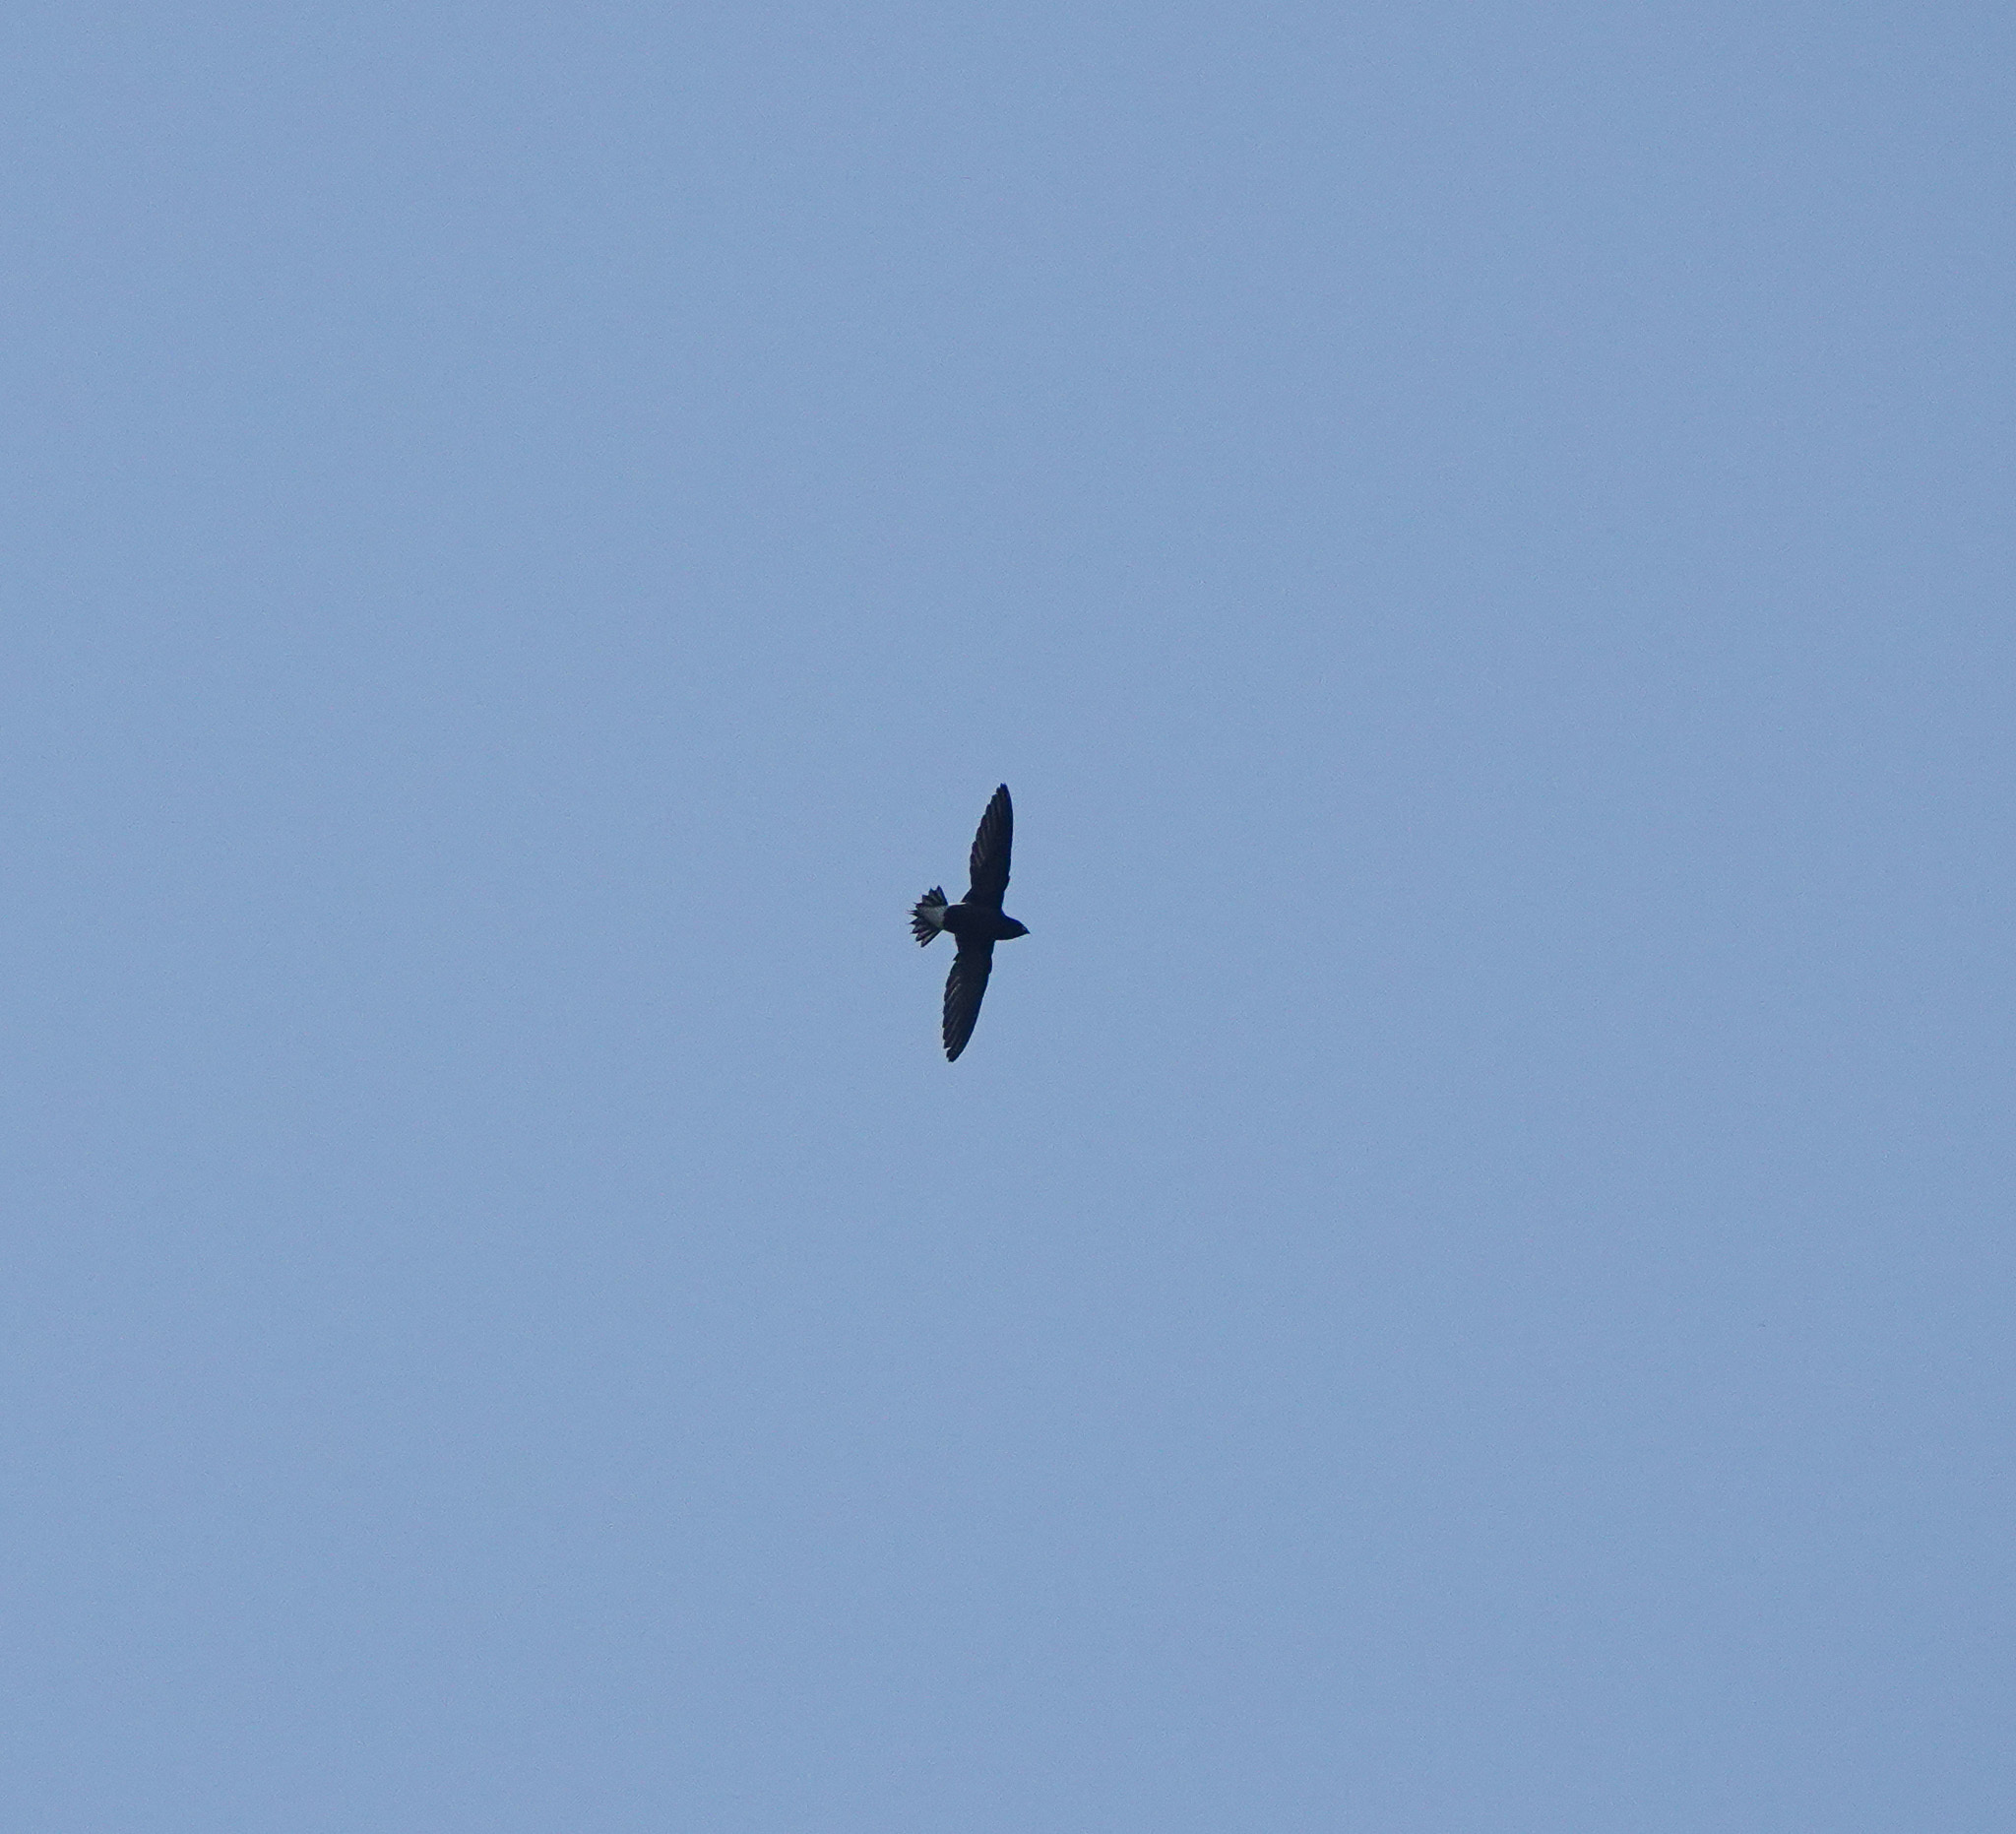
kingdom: Animalia
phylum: Chordata
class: Aves
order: Apodiformes
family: Apodidae
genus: Hirundapus
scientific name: Hirundapus giganteus
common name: Brown-backed needletail
